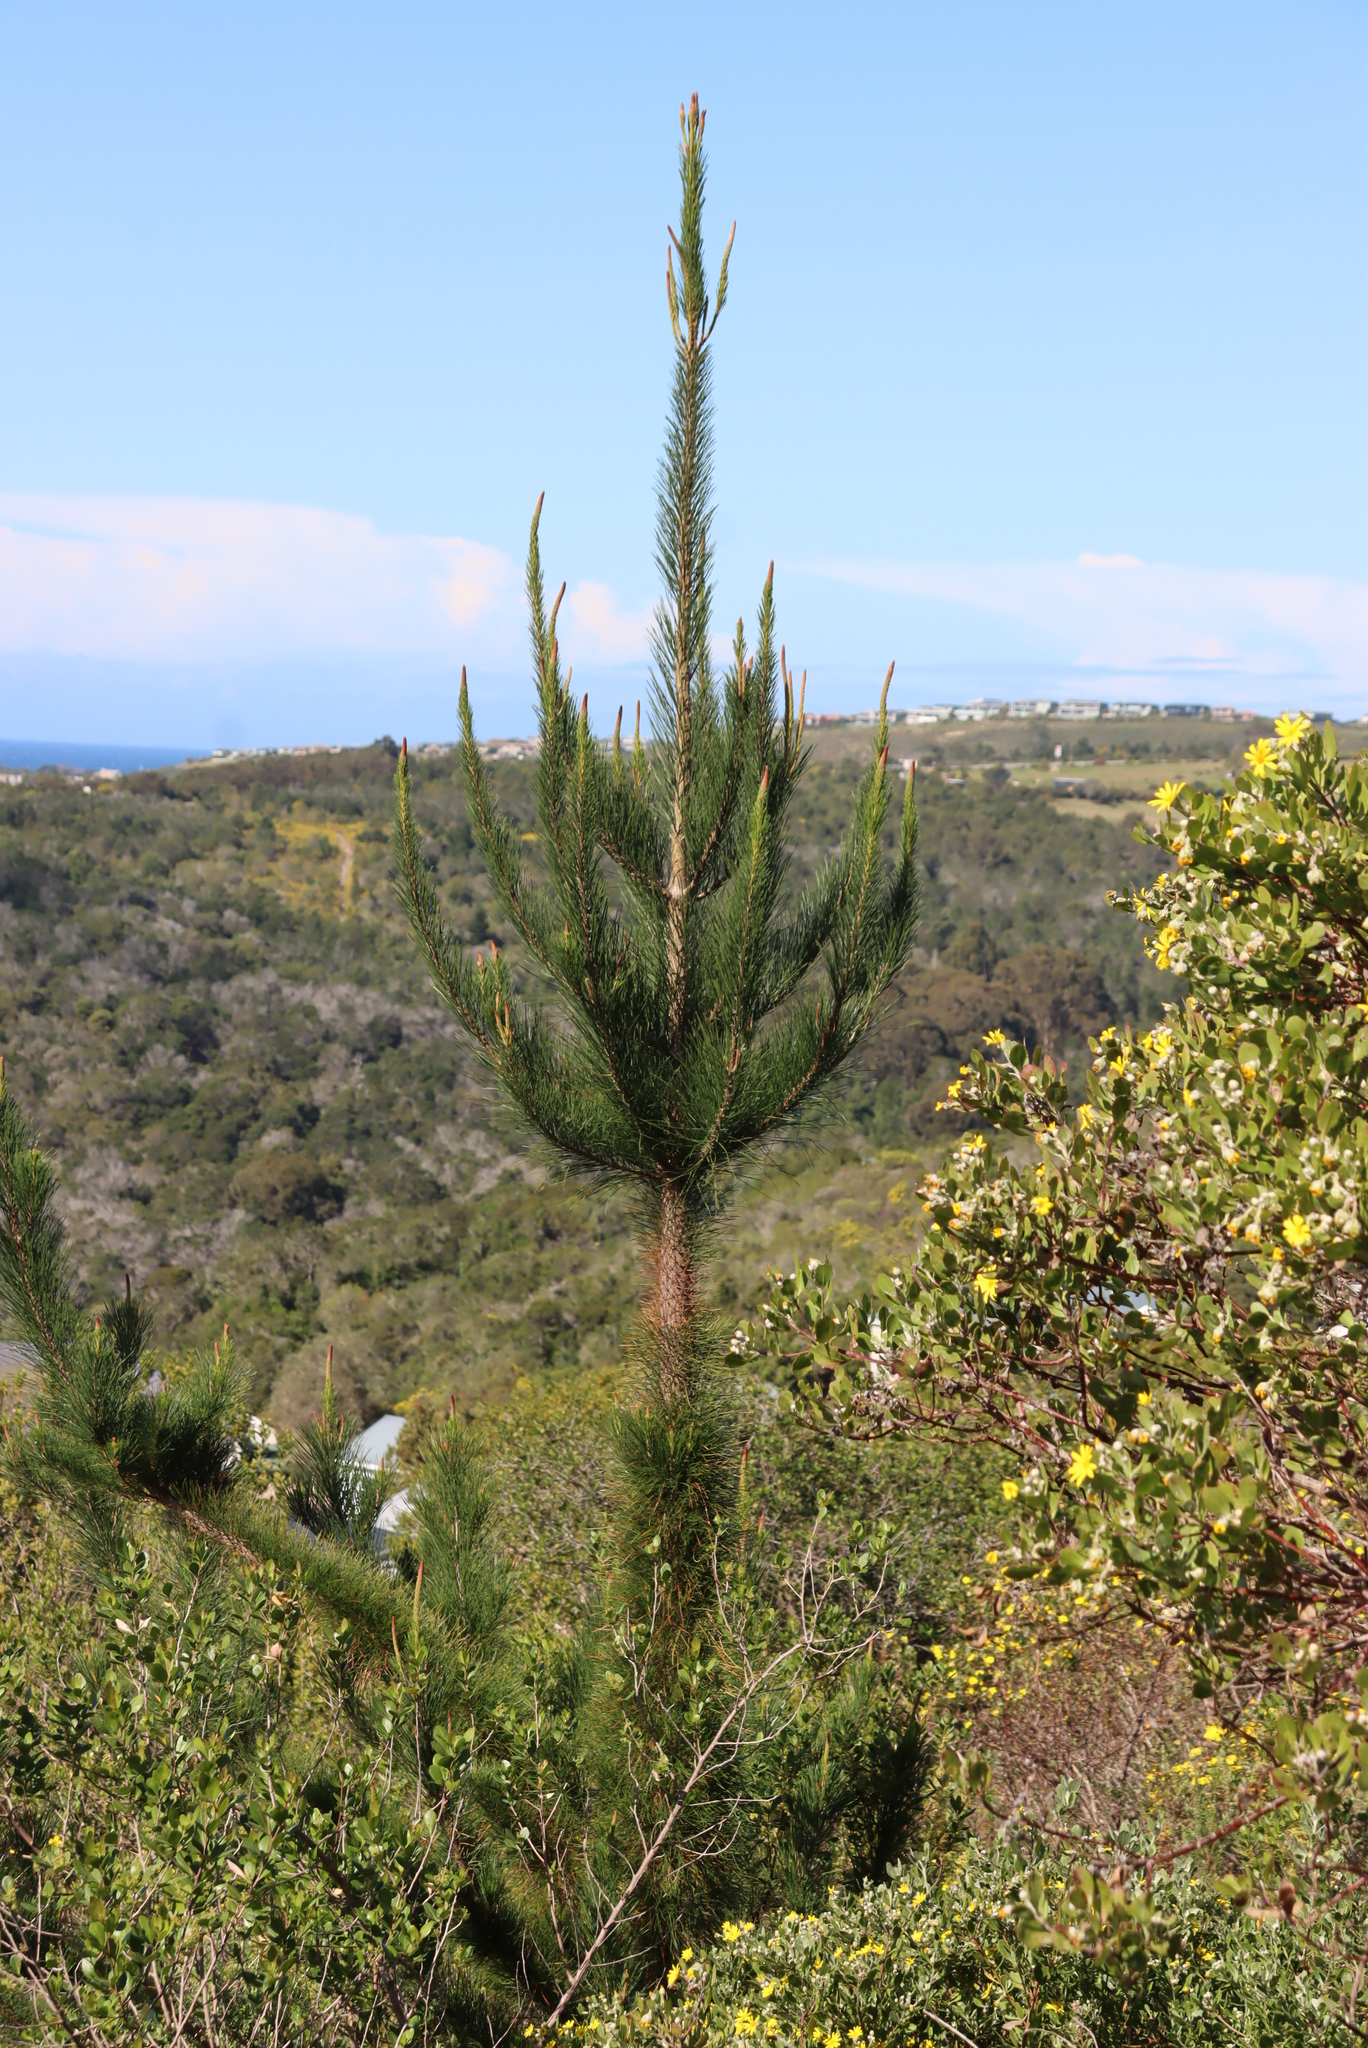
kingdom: Plantae
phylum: Tracheophyta
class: Pinopsida
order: Pinales
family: Pinaceae
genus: Pinus
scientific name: Pinus radiata
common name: Monterey pine
